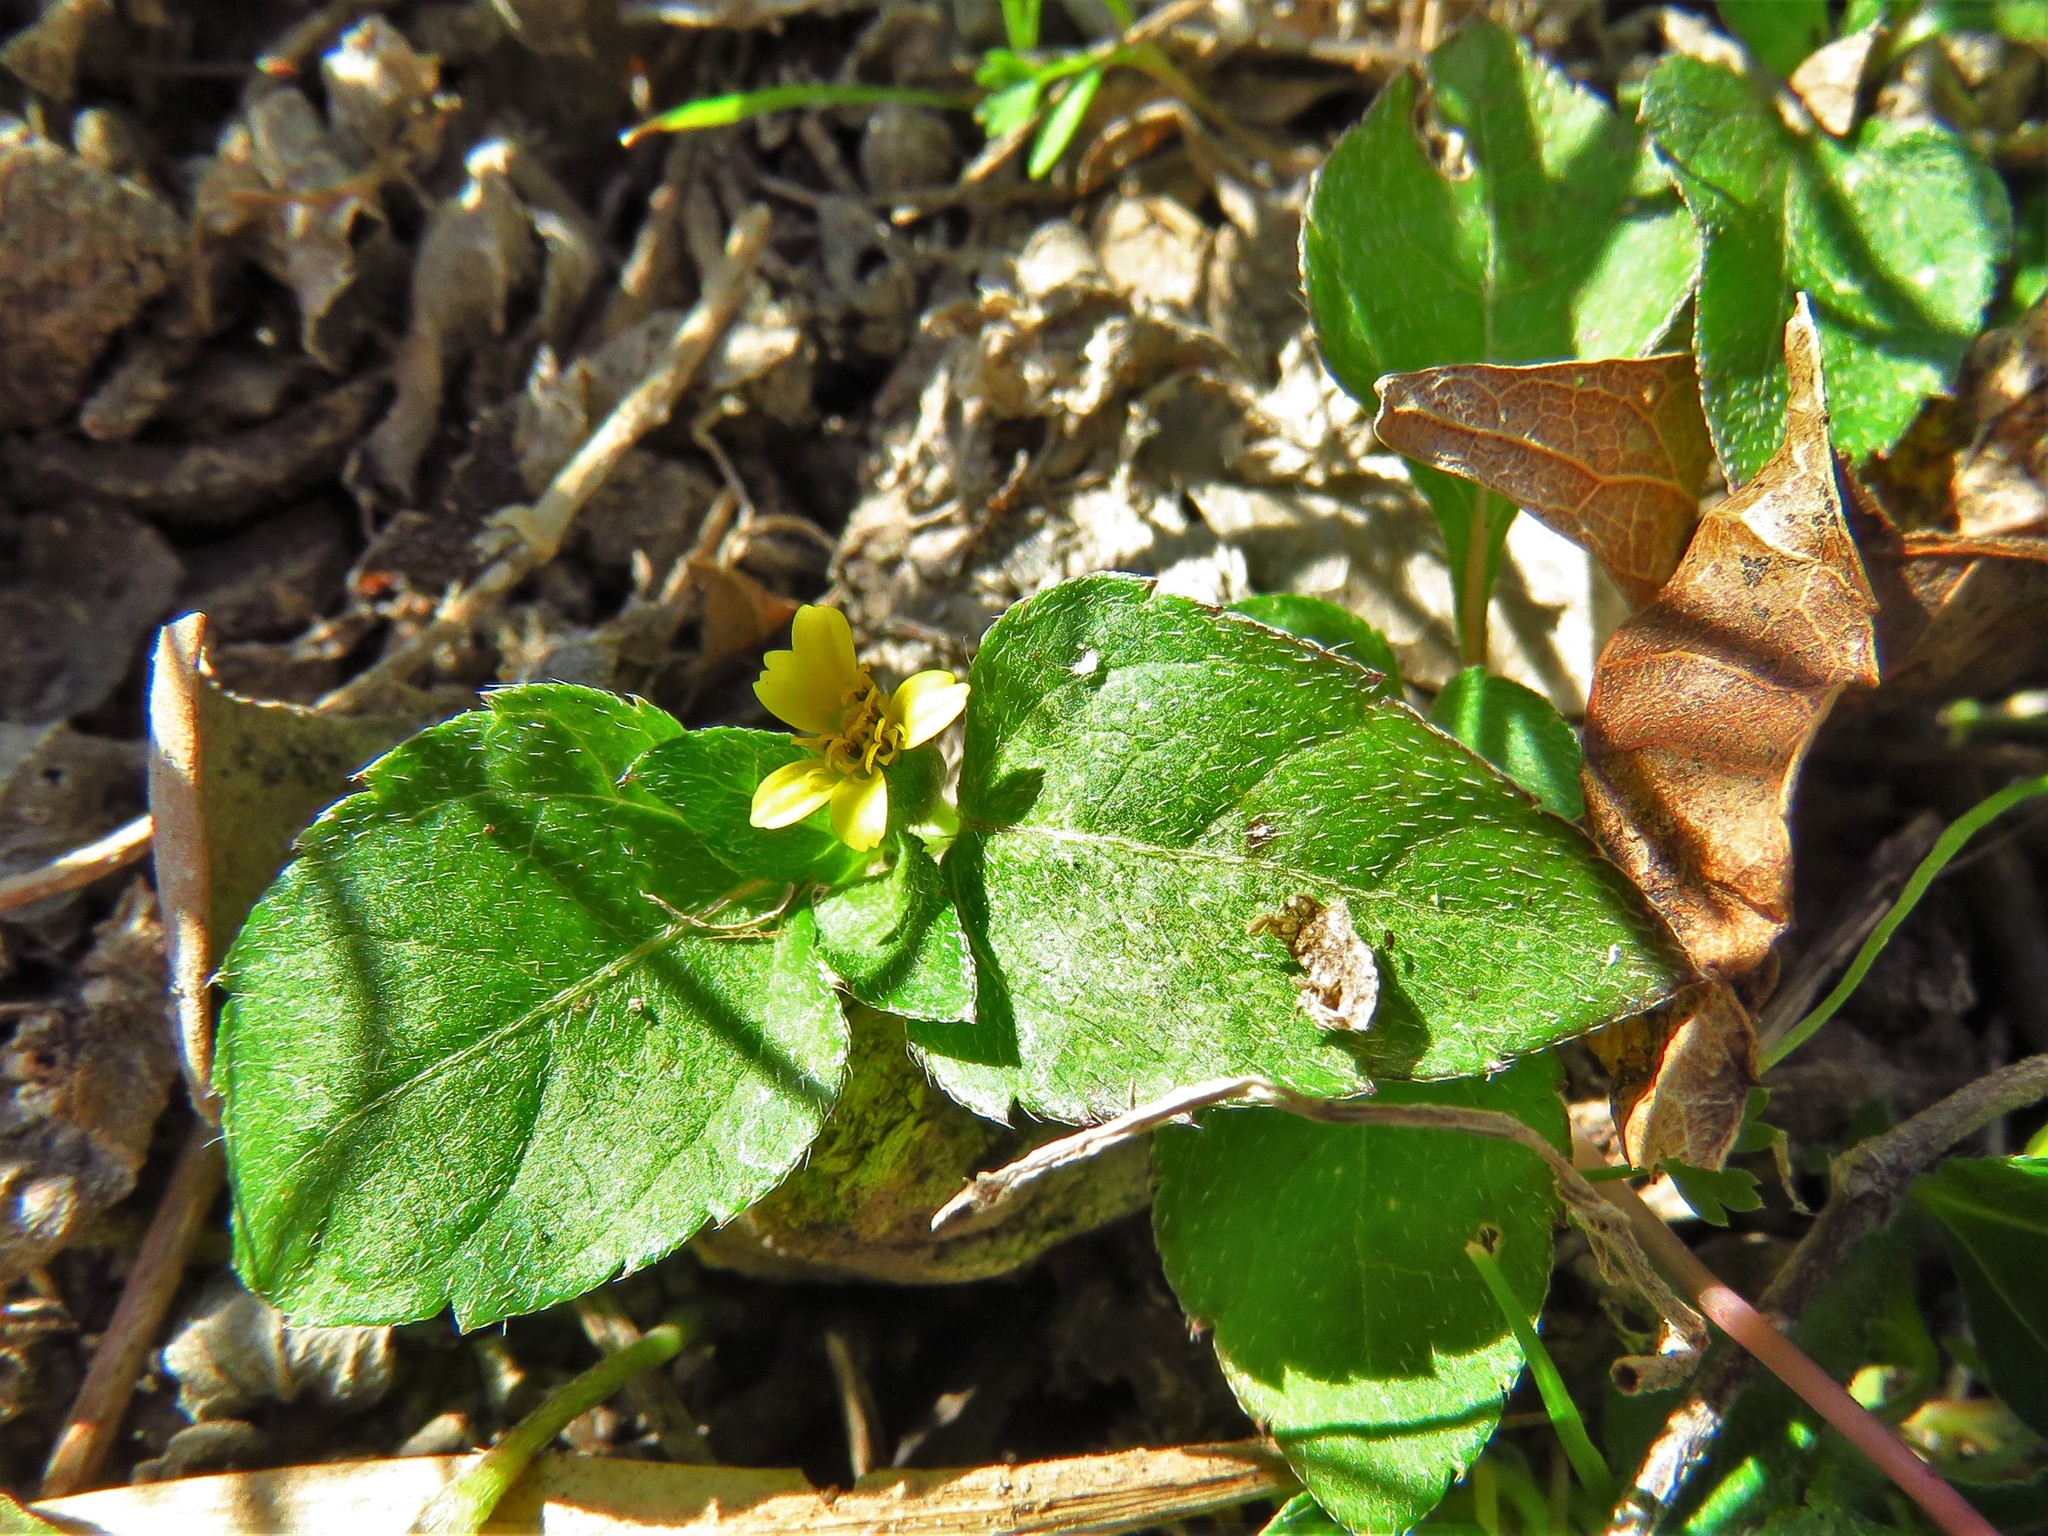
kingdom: Plantae
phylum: Tracheophyta
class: Magnoliopsida
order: Asterales
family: Asteraceae
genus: Calyptocarpus
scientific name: Calyptocarpus vialis
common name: Straggler daisy
